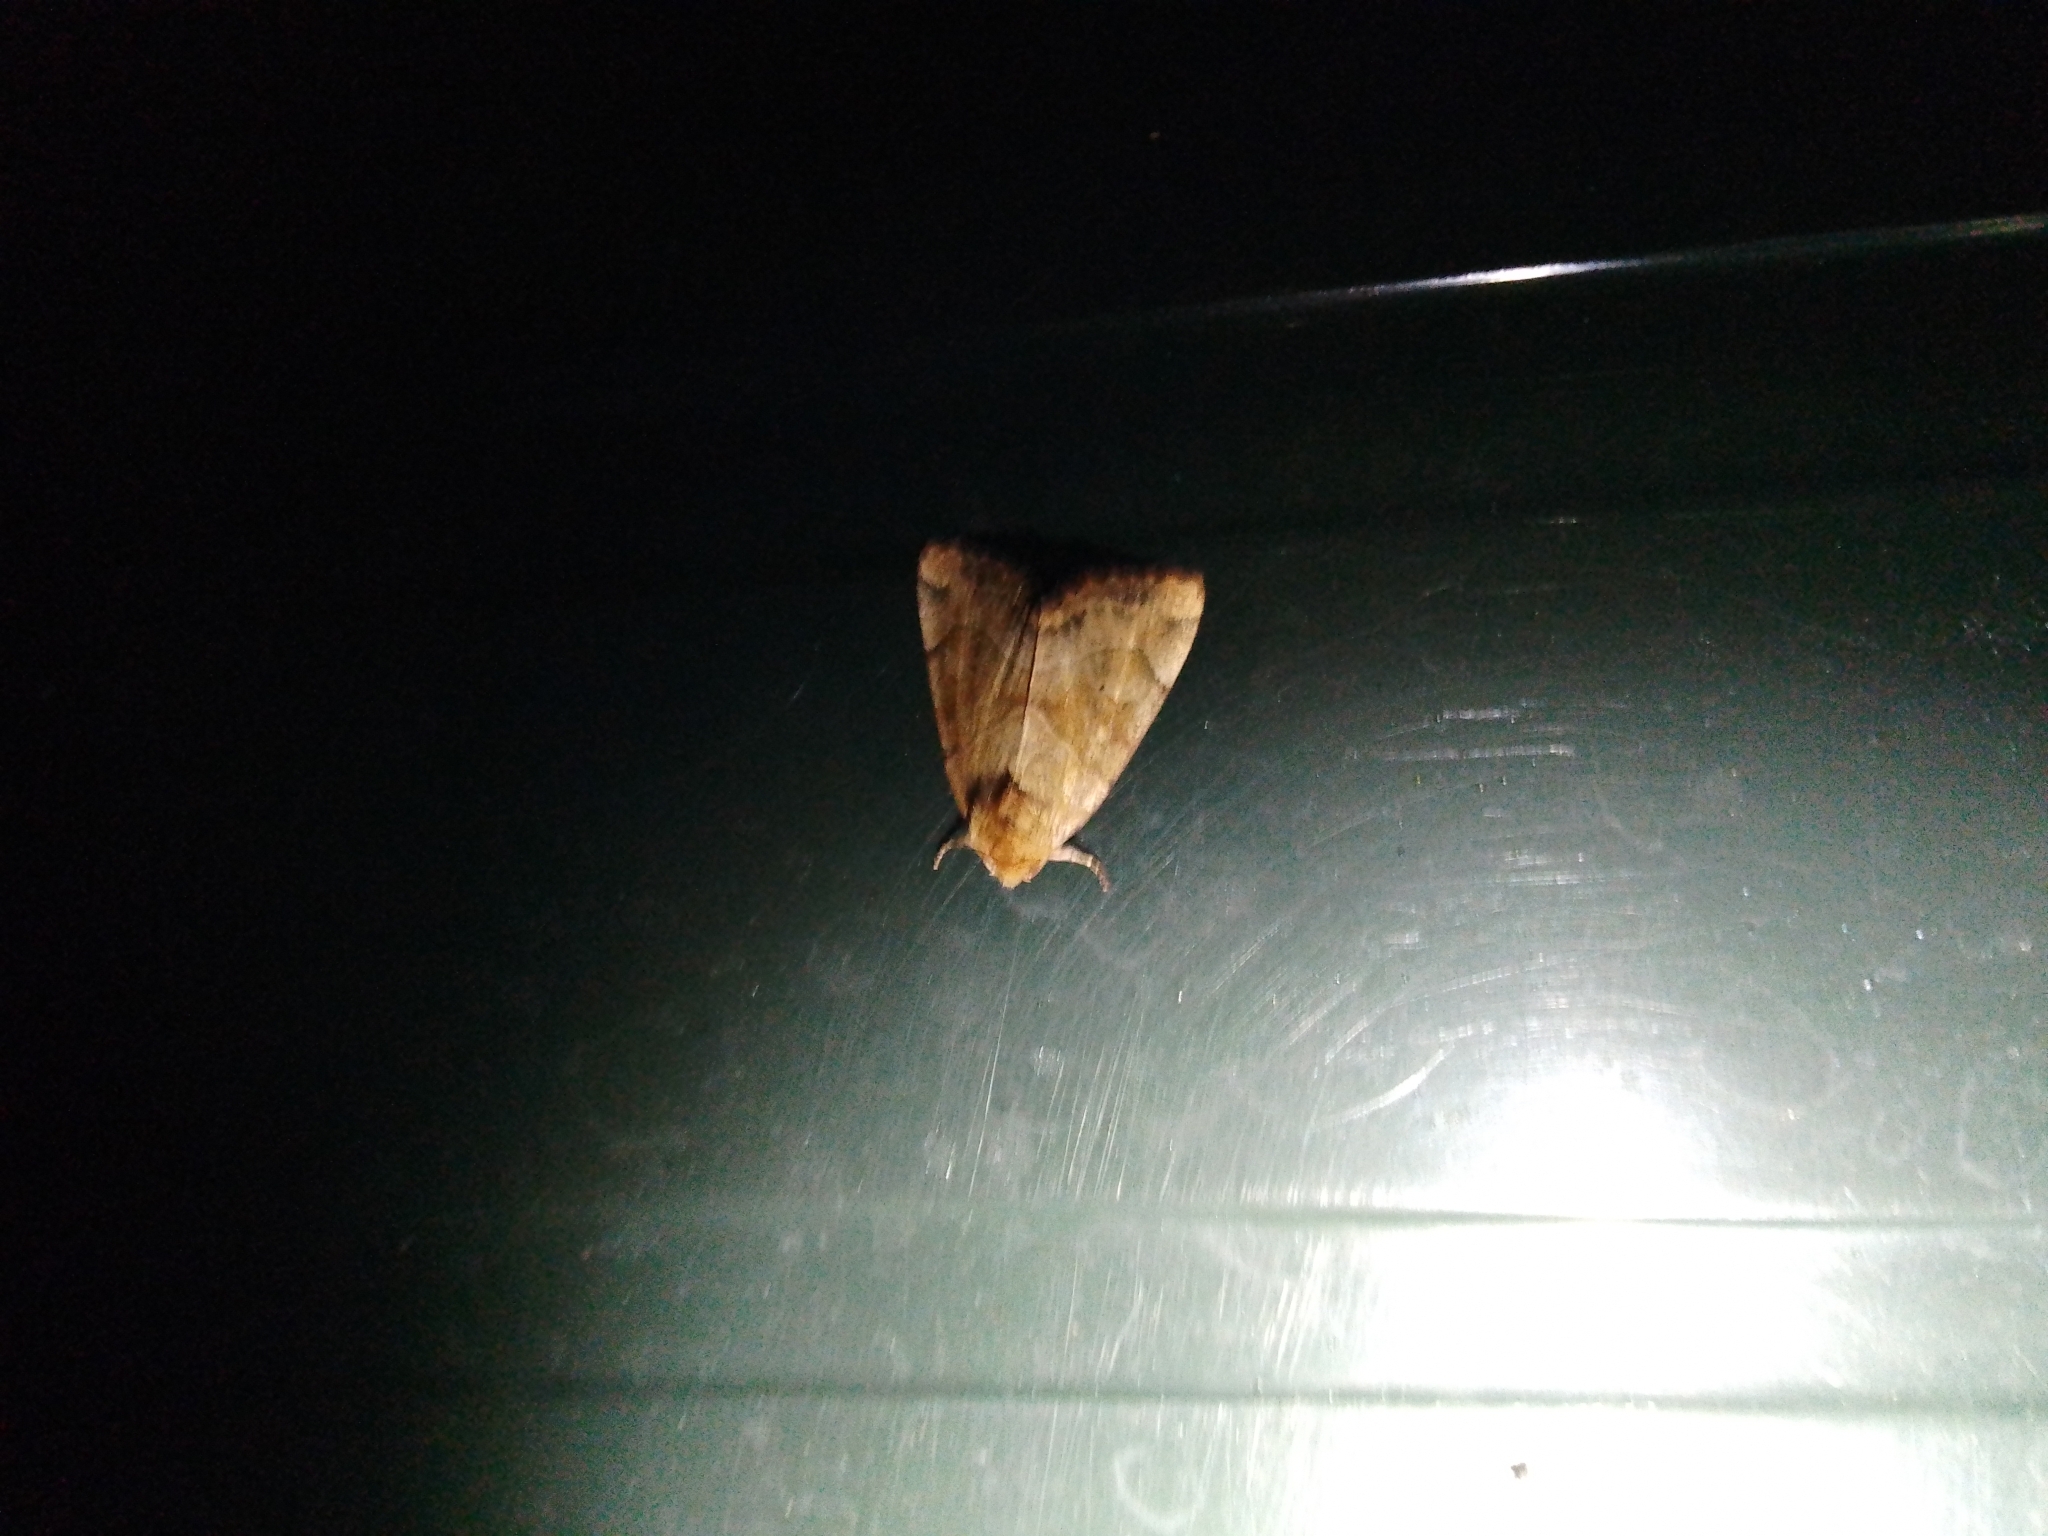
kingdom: Animalia
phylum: Arthropoda
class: Insecta
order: Lepidoptera
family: Noctuidae
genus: Cosmia
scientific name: Cosmia trapezina
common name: Dun-bar
